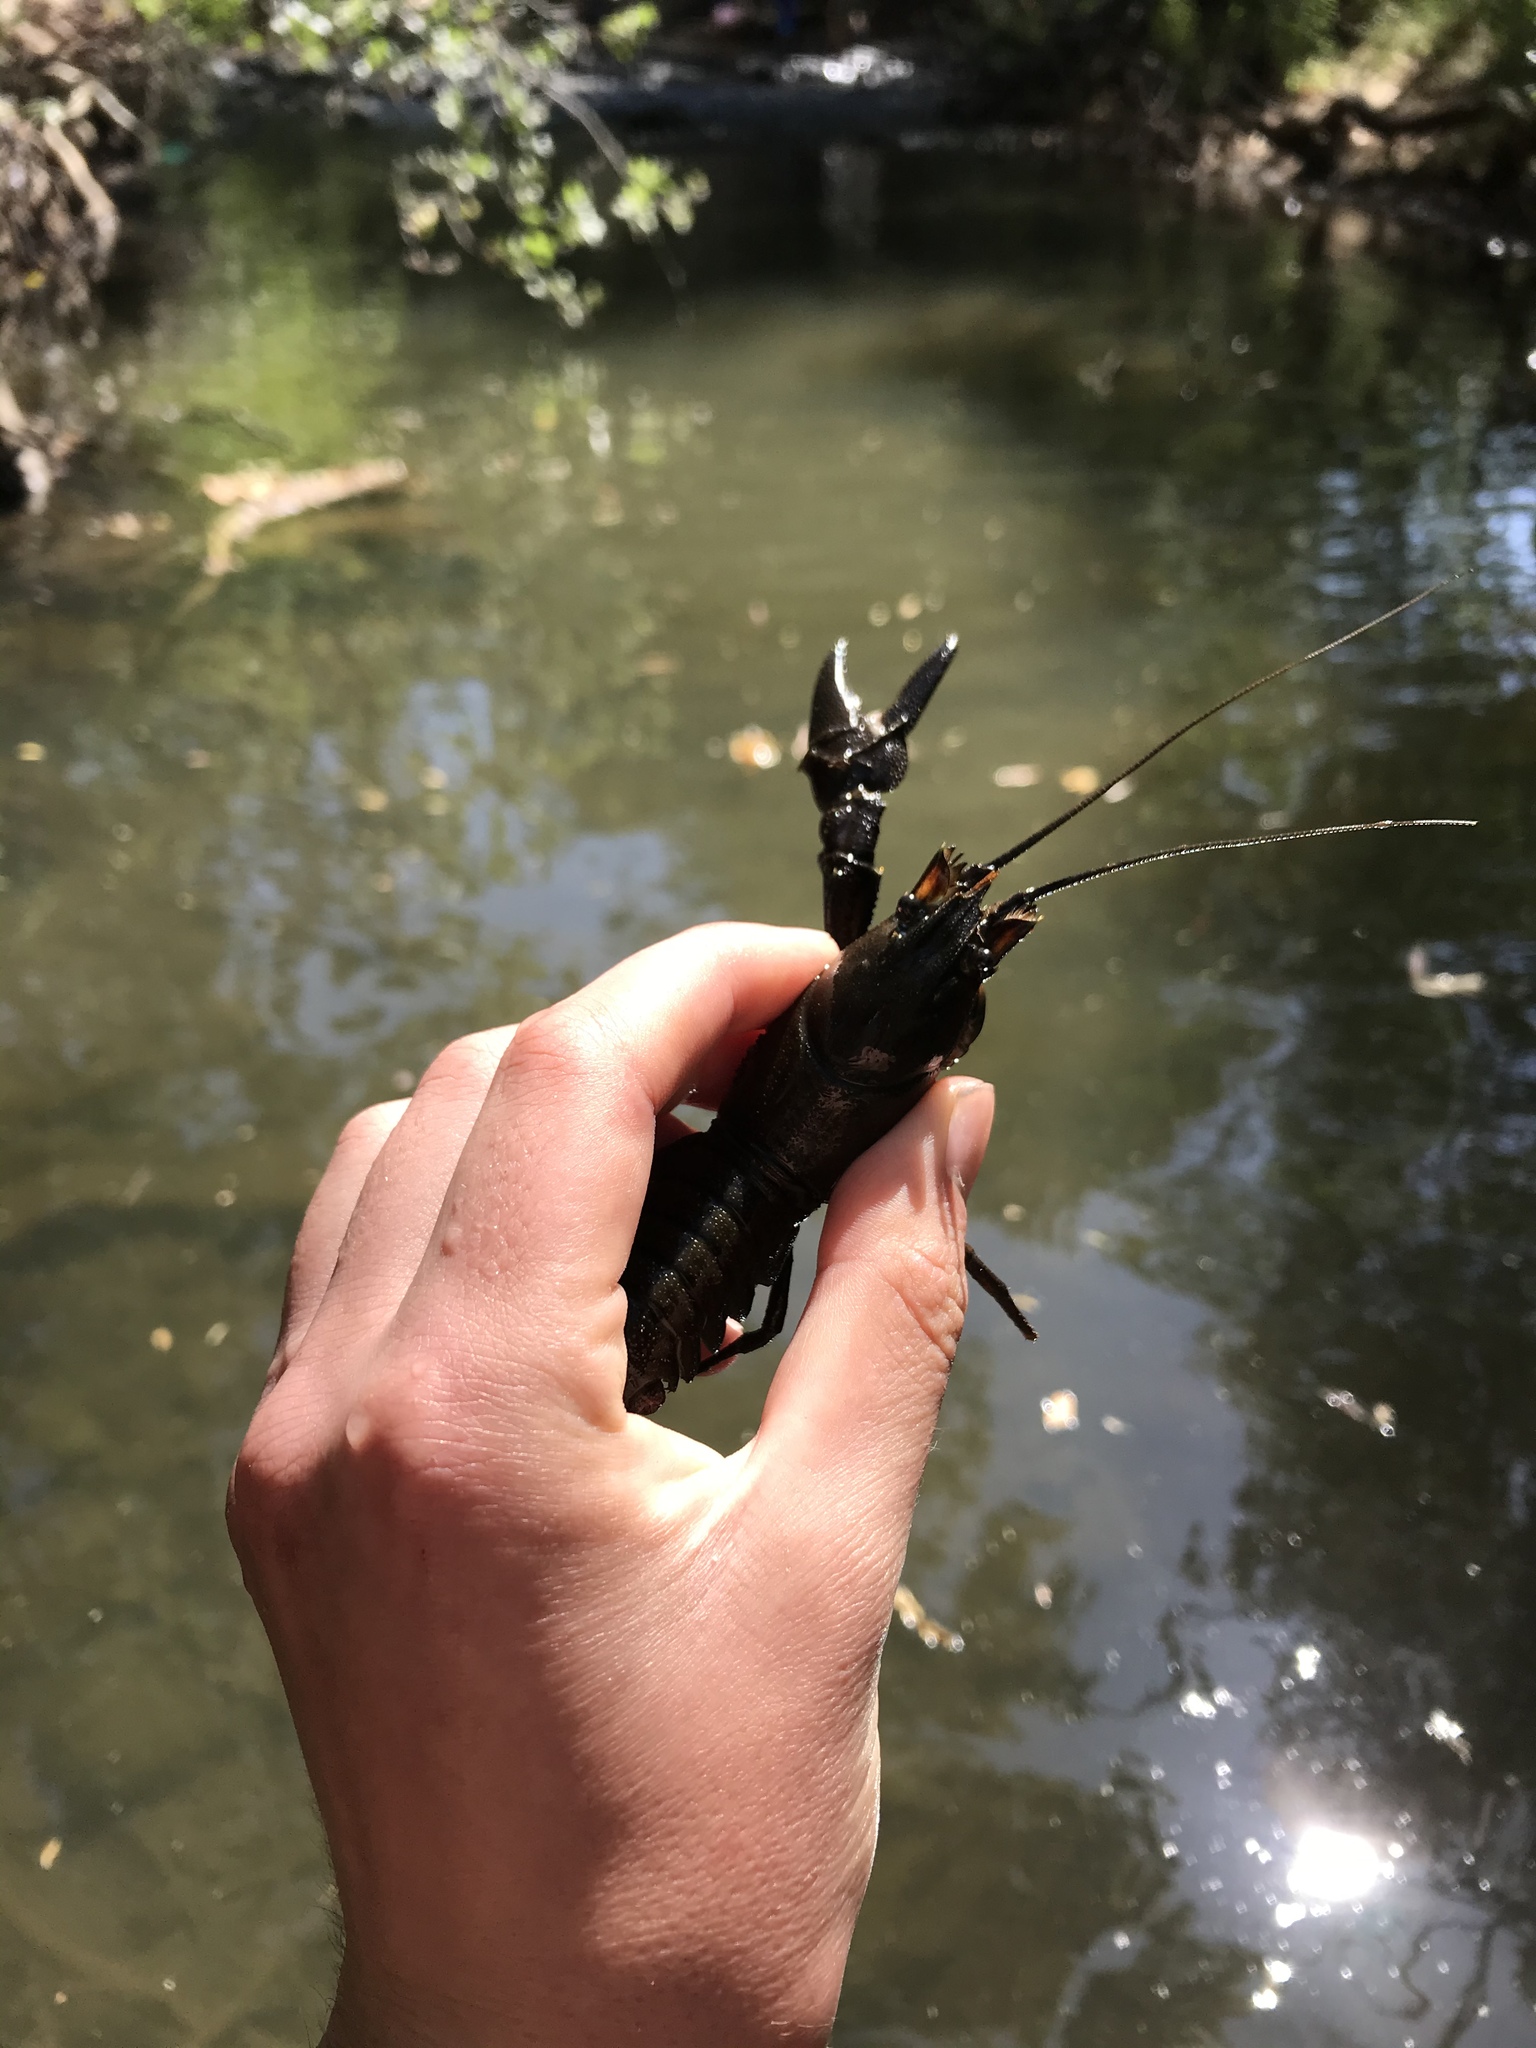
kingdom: Animalia
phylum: Arthropoda
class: Malacostraca
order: Decapoda
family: Astacidae
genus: Pacifastacus
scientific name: Pacifastacus leniusculus
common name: Signal crayfish
